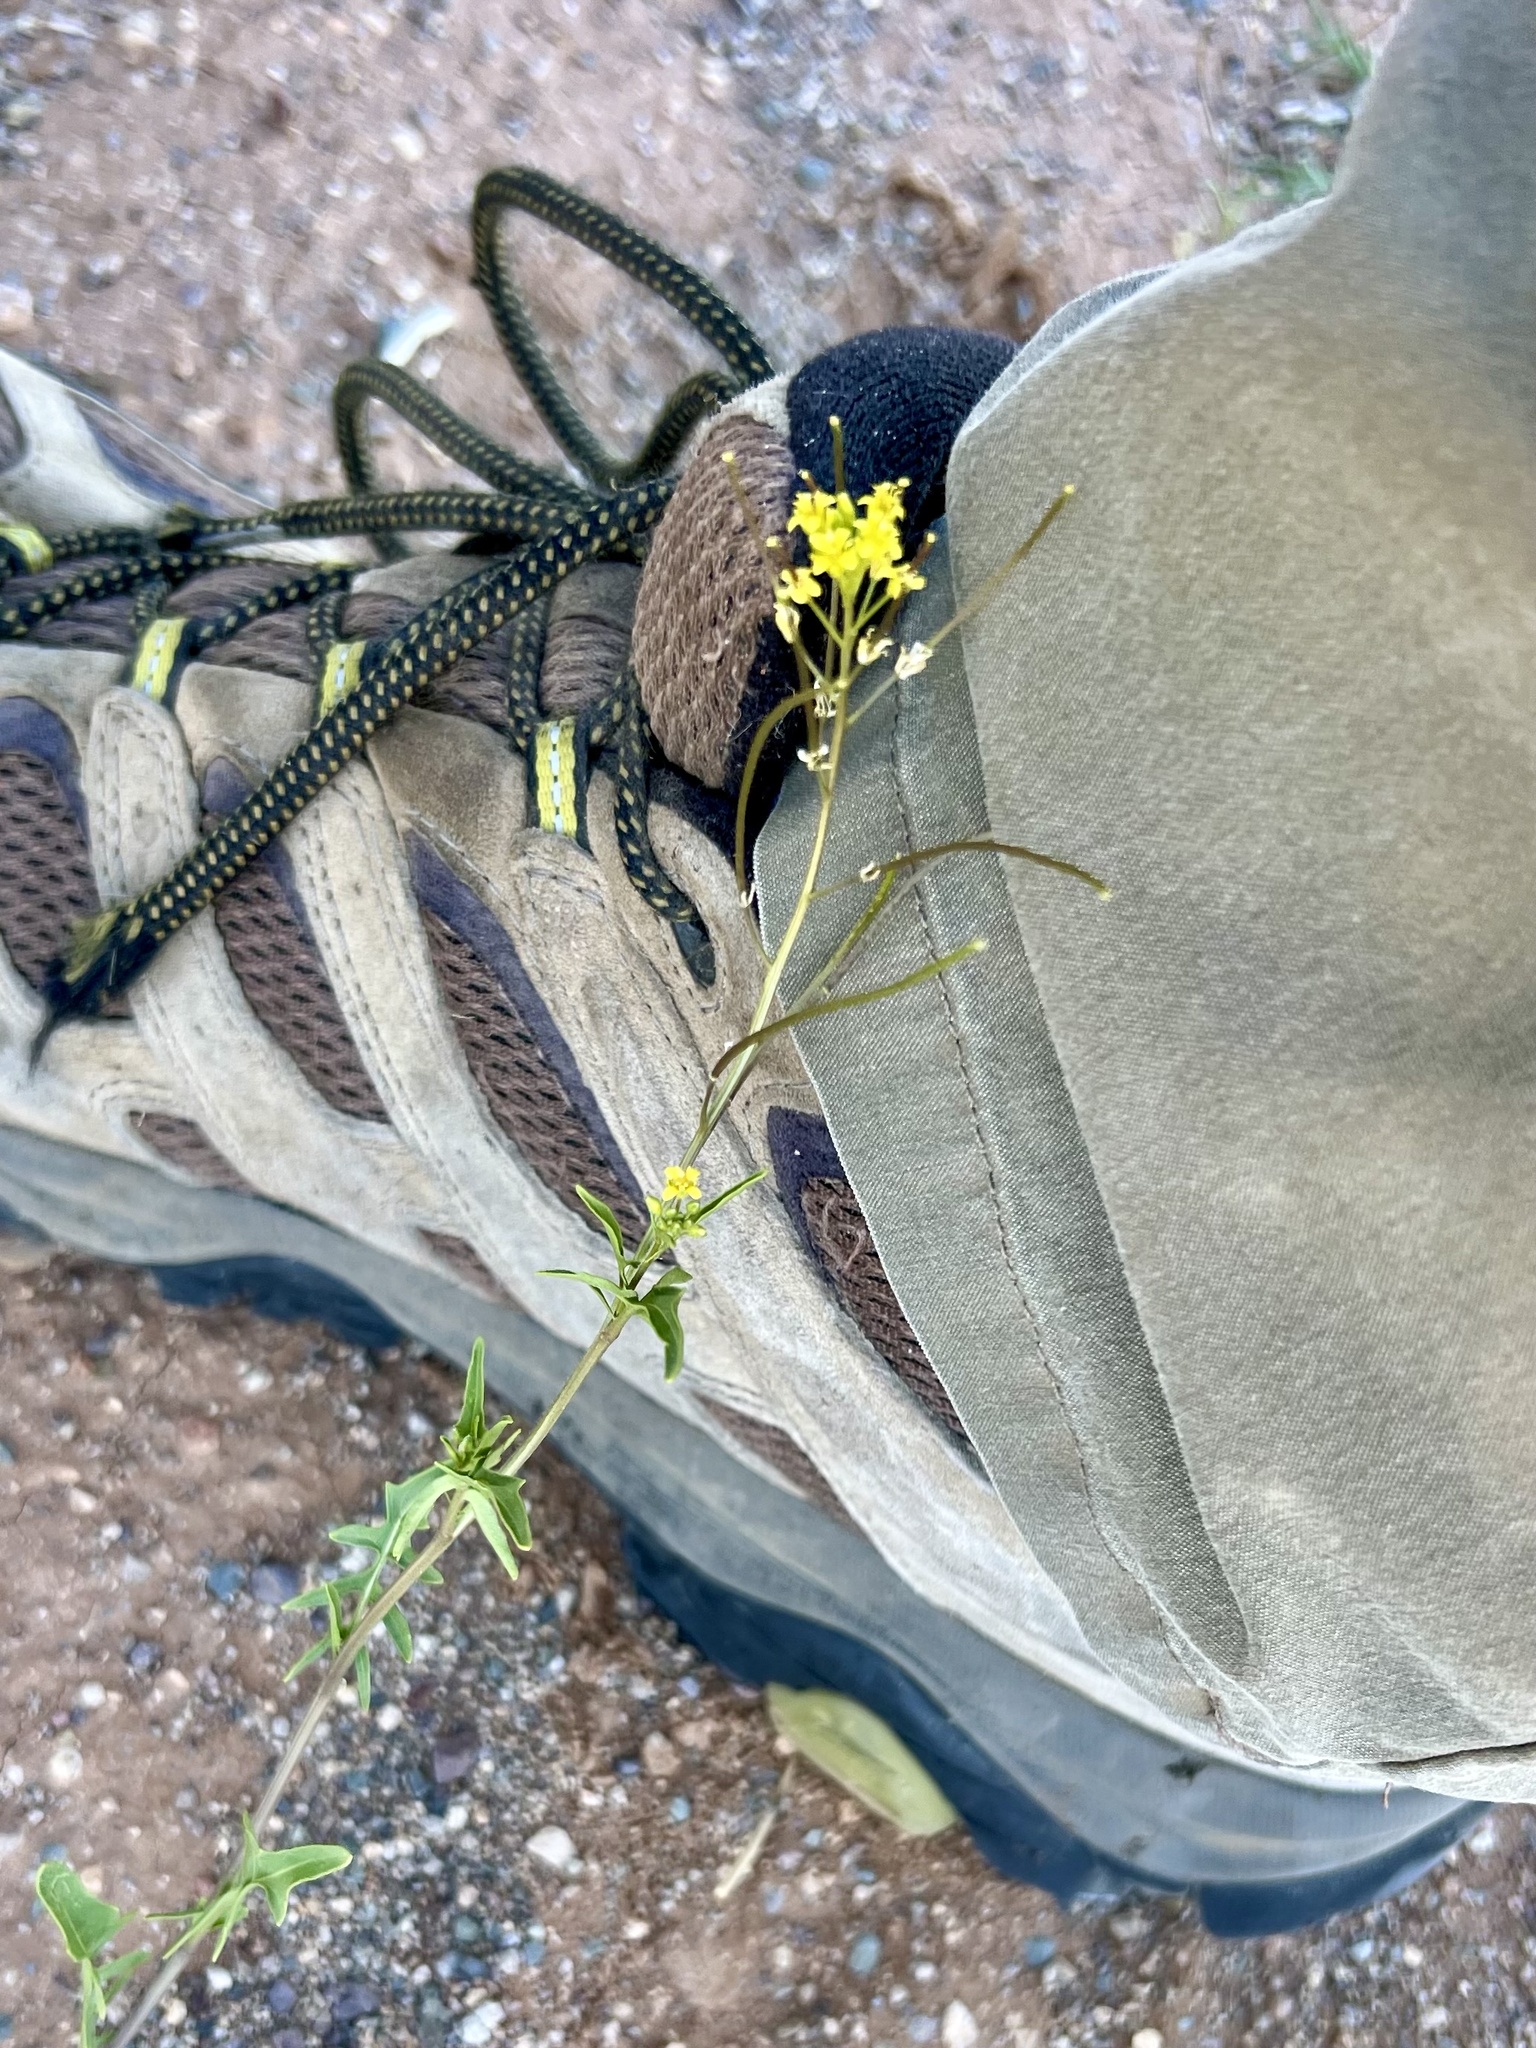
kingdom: Plantae
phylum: Tracheophyta
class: Magnoliopsida
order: Brassicales
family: Brassicaceae
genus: Sisymbrium
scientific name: Sisymbrium irio
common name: London rocket
